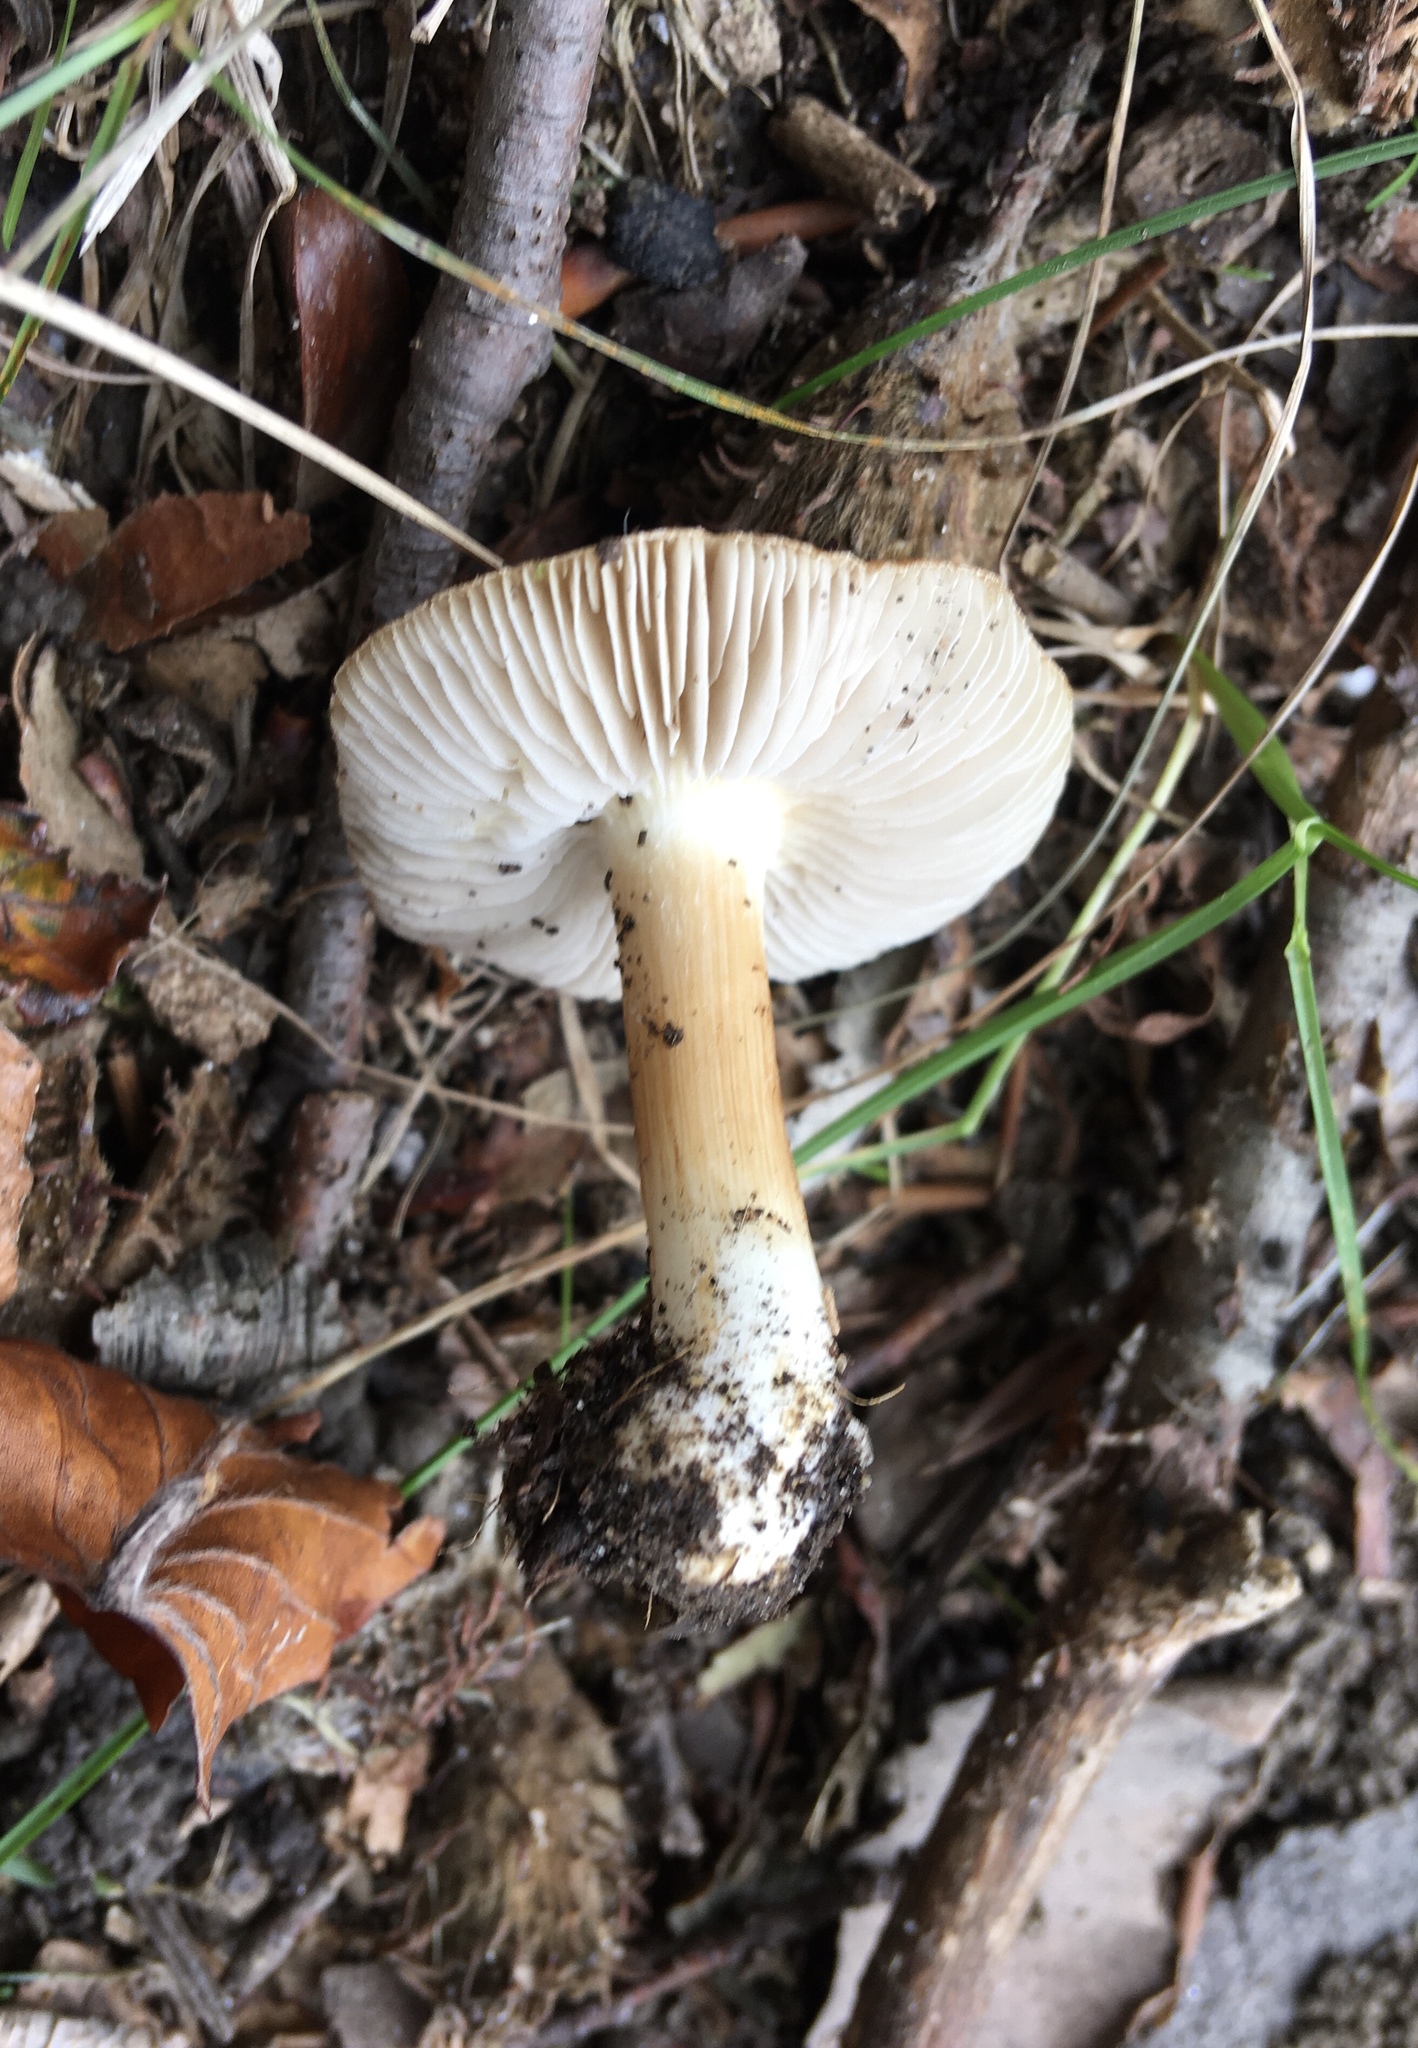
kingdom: Fungi
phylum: Basidiomycota
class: Agaricomycetes
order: Agaricales
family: Inocybaceae
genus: Inosperma
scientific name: Inosperma lanatodiscum
